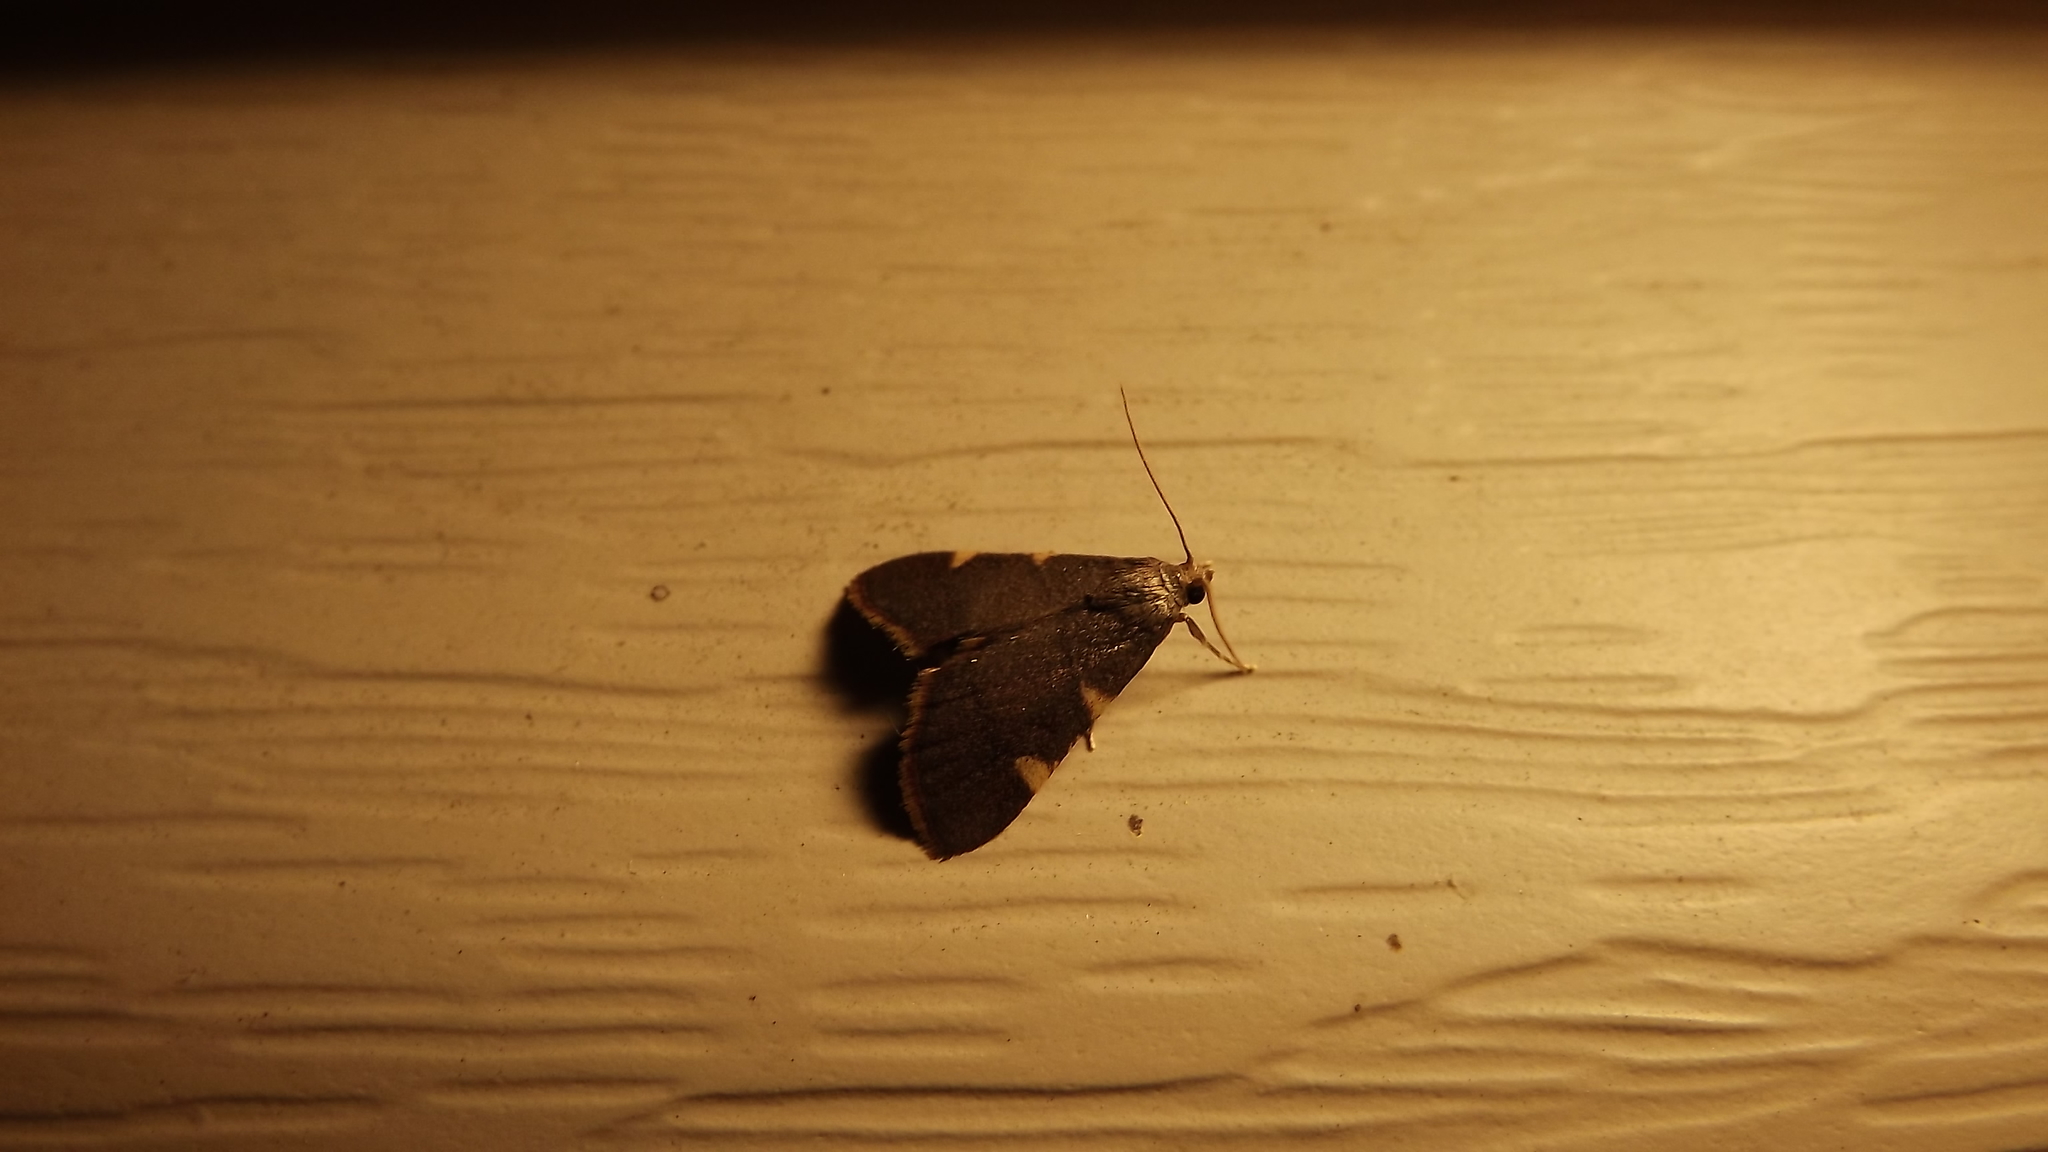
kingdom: Animalia
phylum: Arthropoda
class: Insecta
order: Lepidoptera
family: Pyralidae
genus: Hypsopygia
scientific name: Hypsopygia olinalis
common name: Yellow-fringed dolichomia moth
